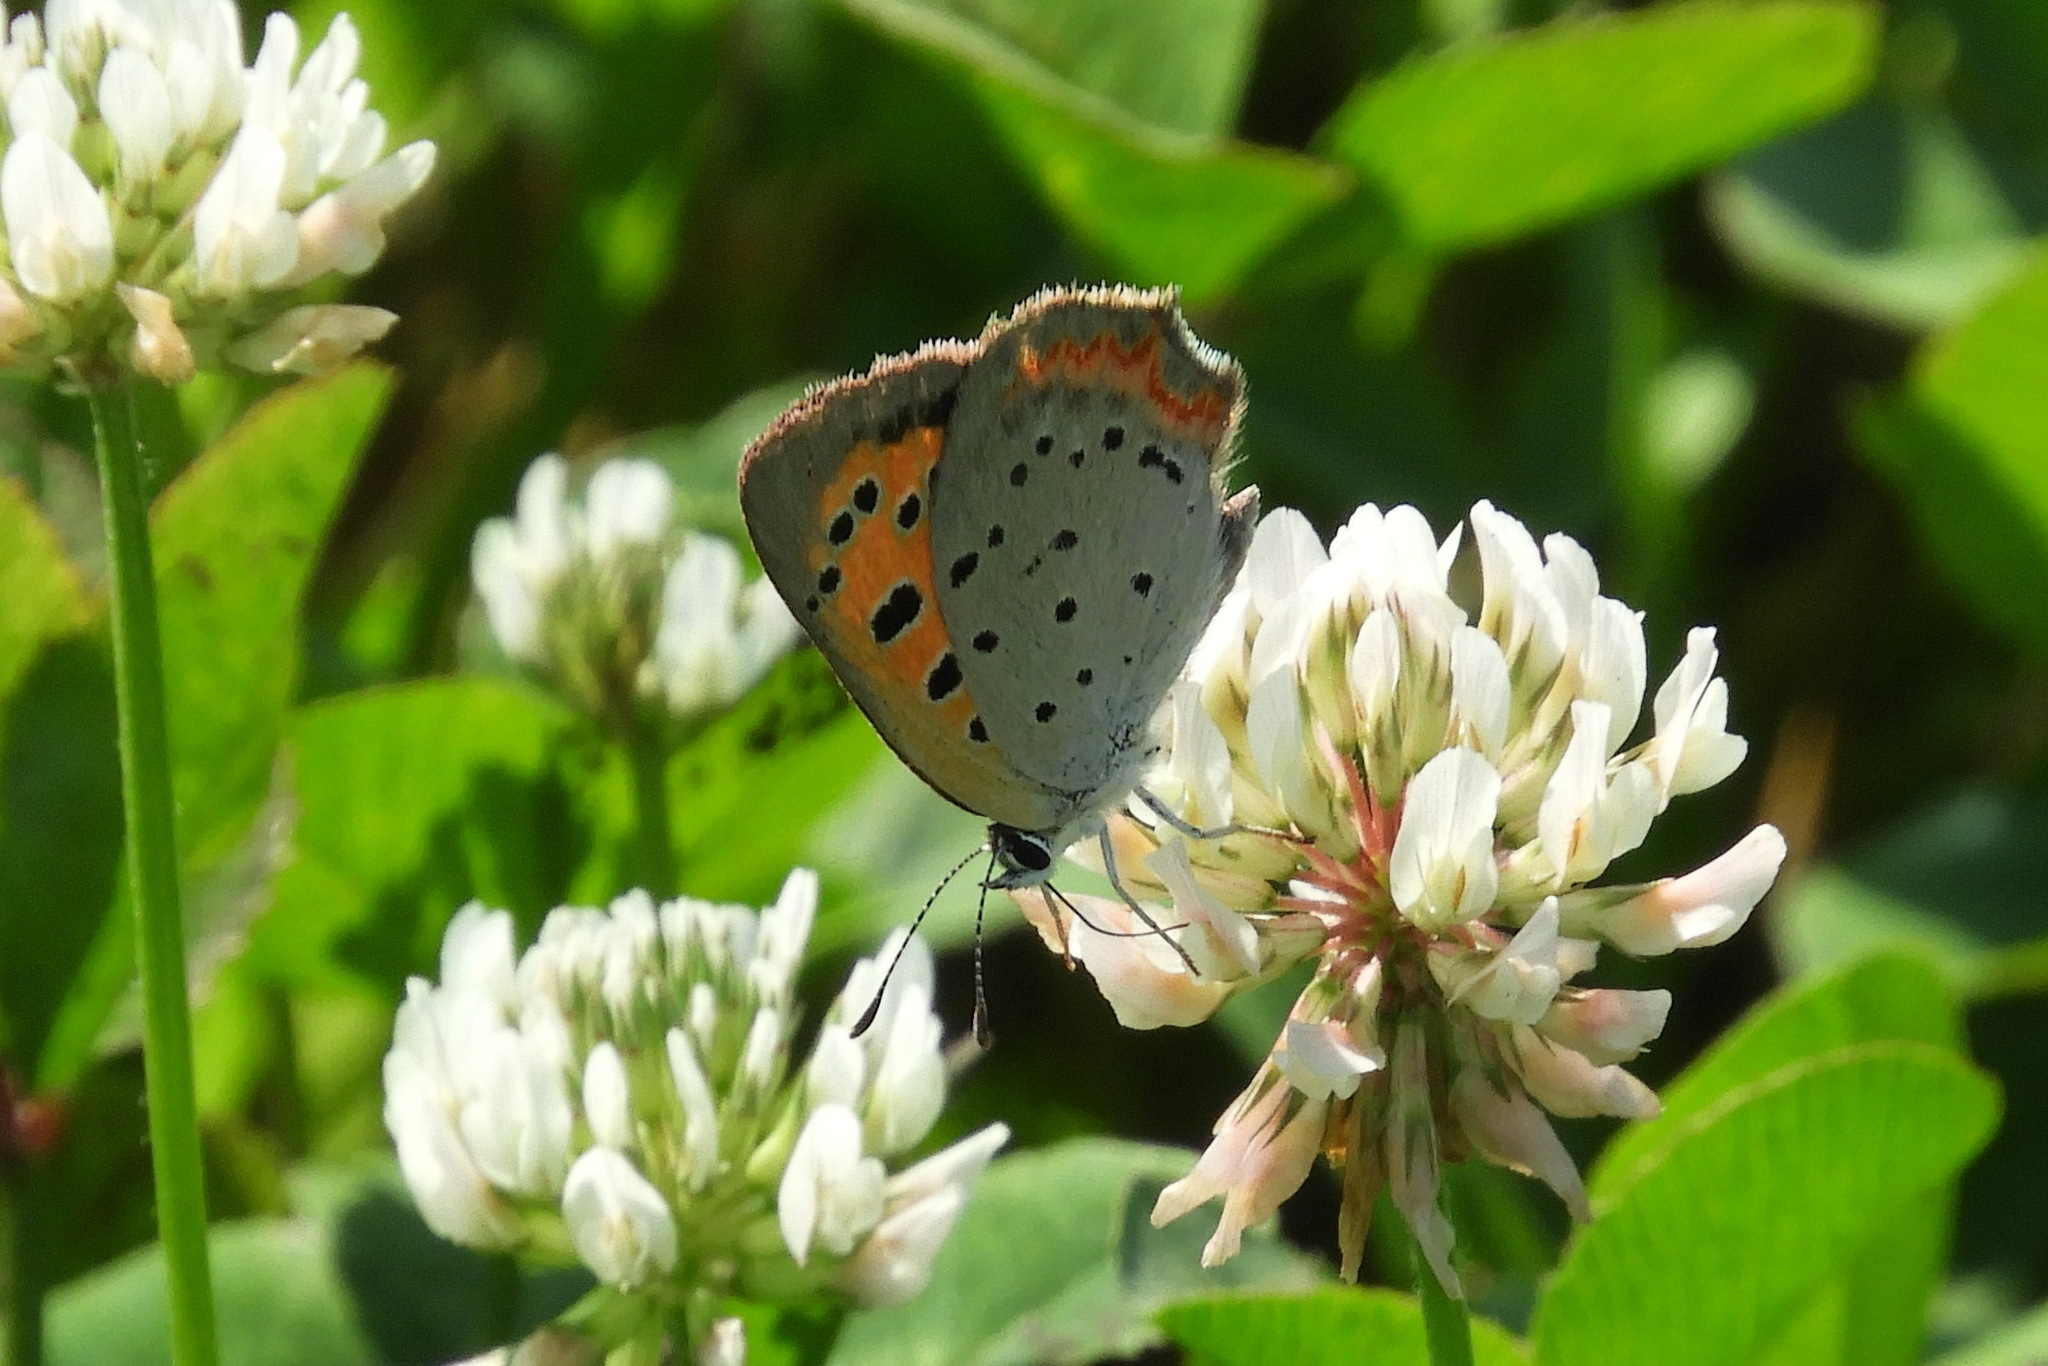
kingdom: Animalia
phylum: Arthropoda
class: Insecta
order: Lepidoptera
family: Lycaenidae
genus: Lycaena
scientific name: Lycaena hypophlaeas
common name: American copper
